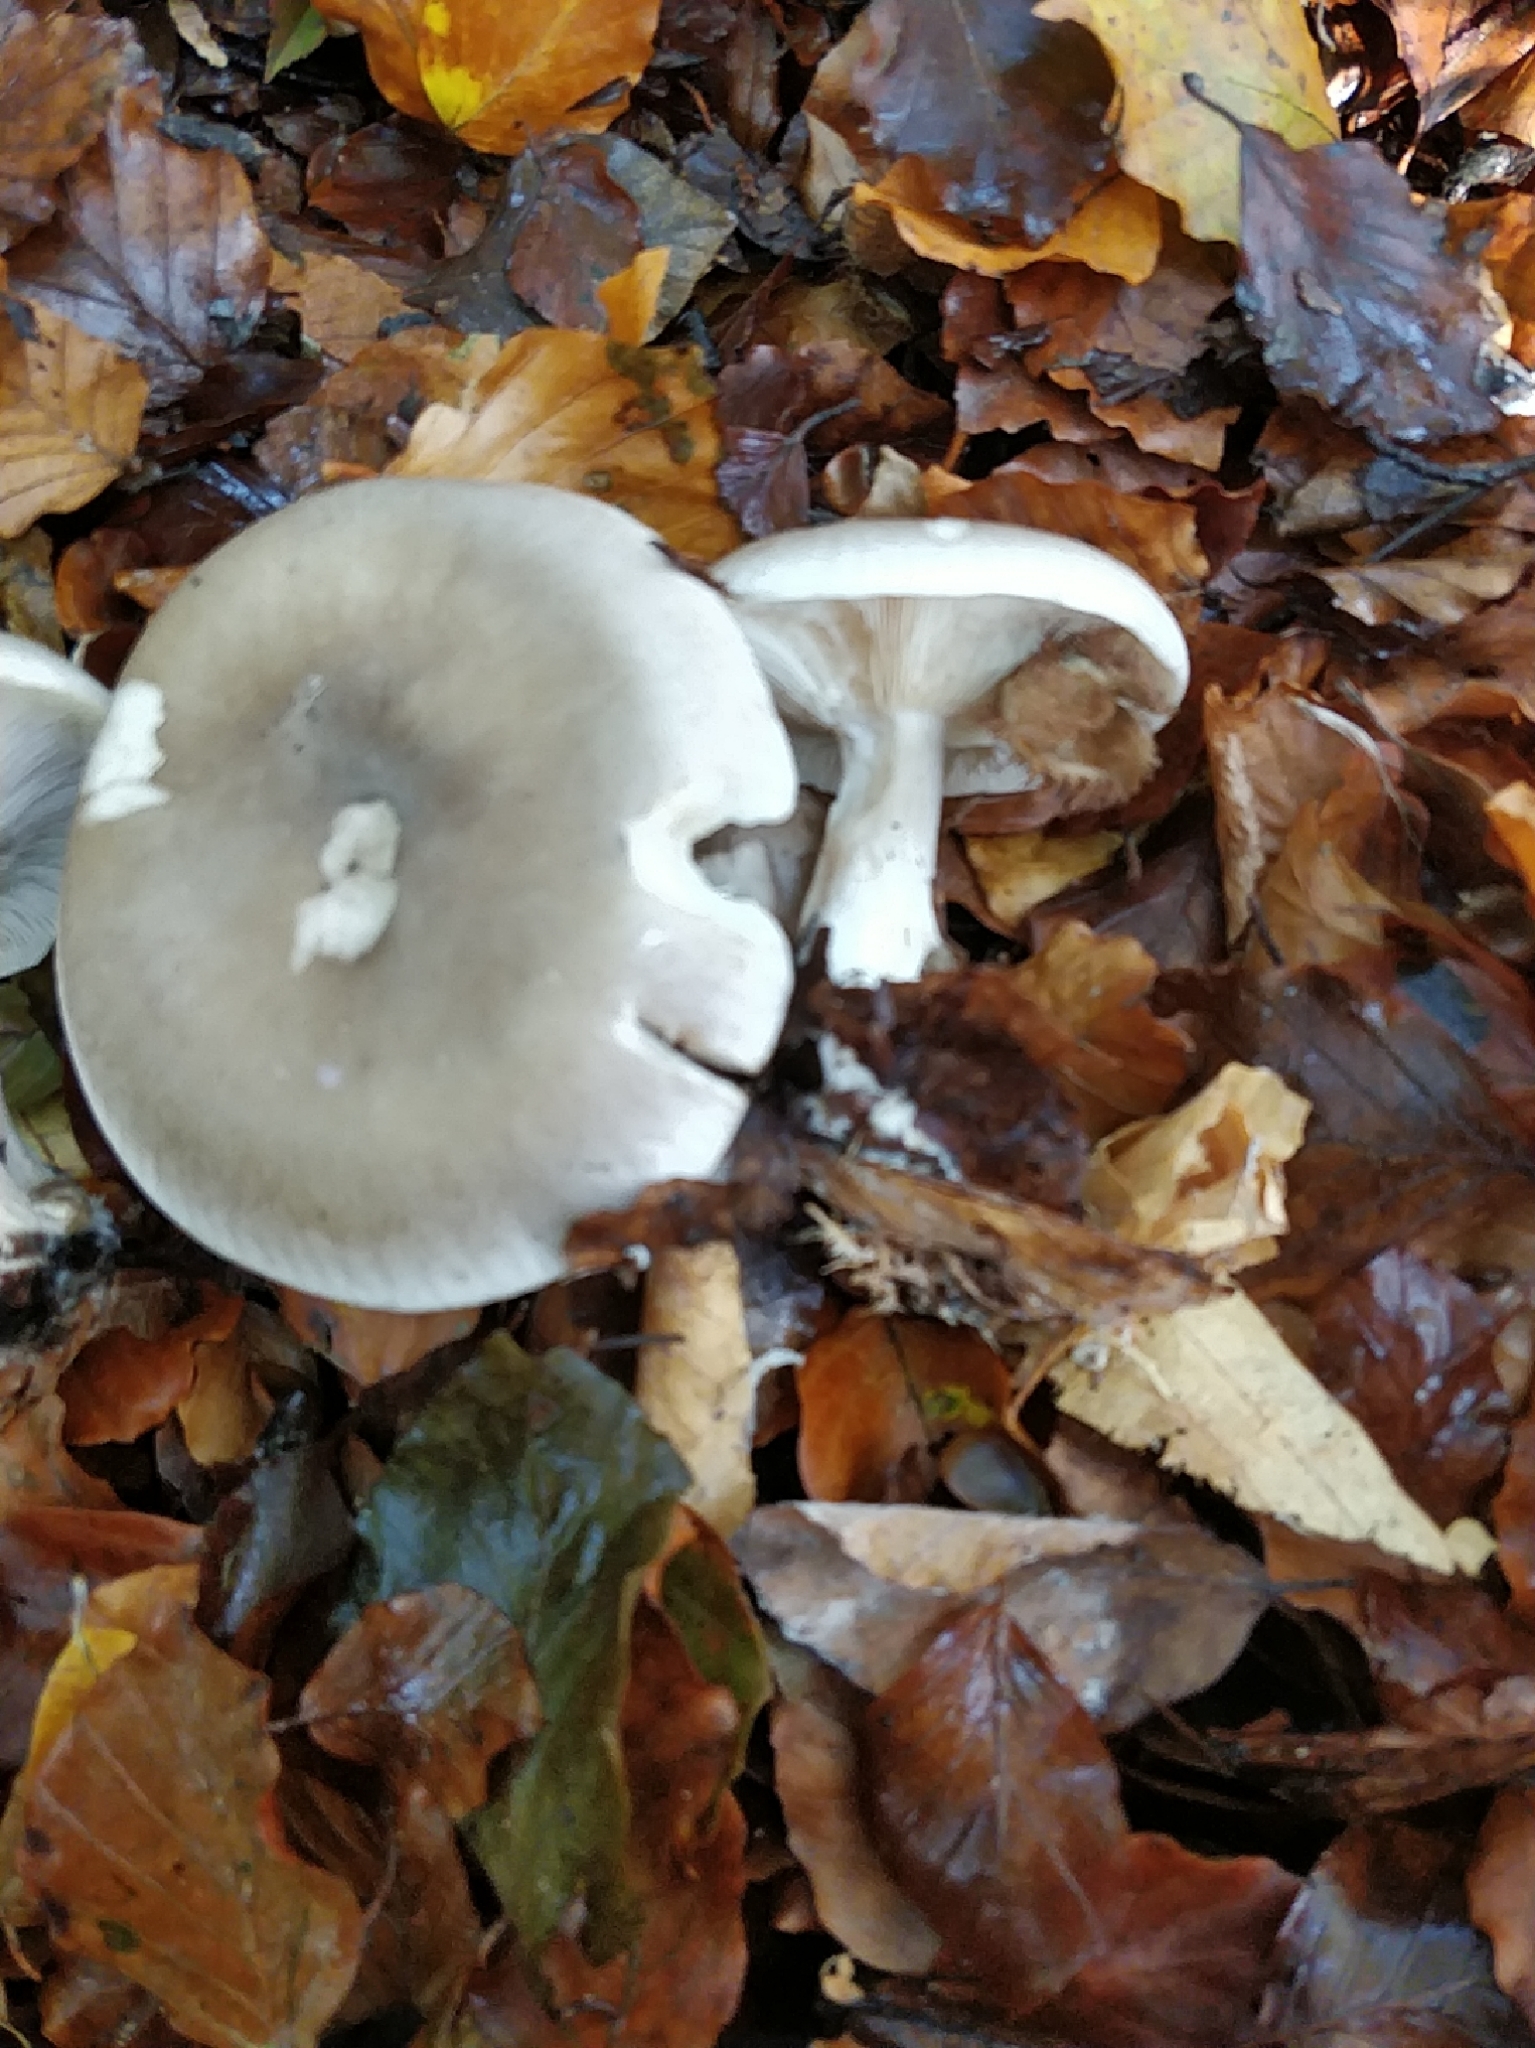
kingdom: Fungi
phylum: Basidiomycota
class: Agaricomycetes
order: Agaricales
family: Tricholomataceae
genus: Clitocybe
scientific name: Clitocybe nebularis
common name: Clouded agaric
